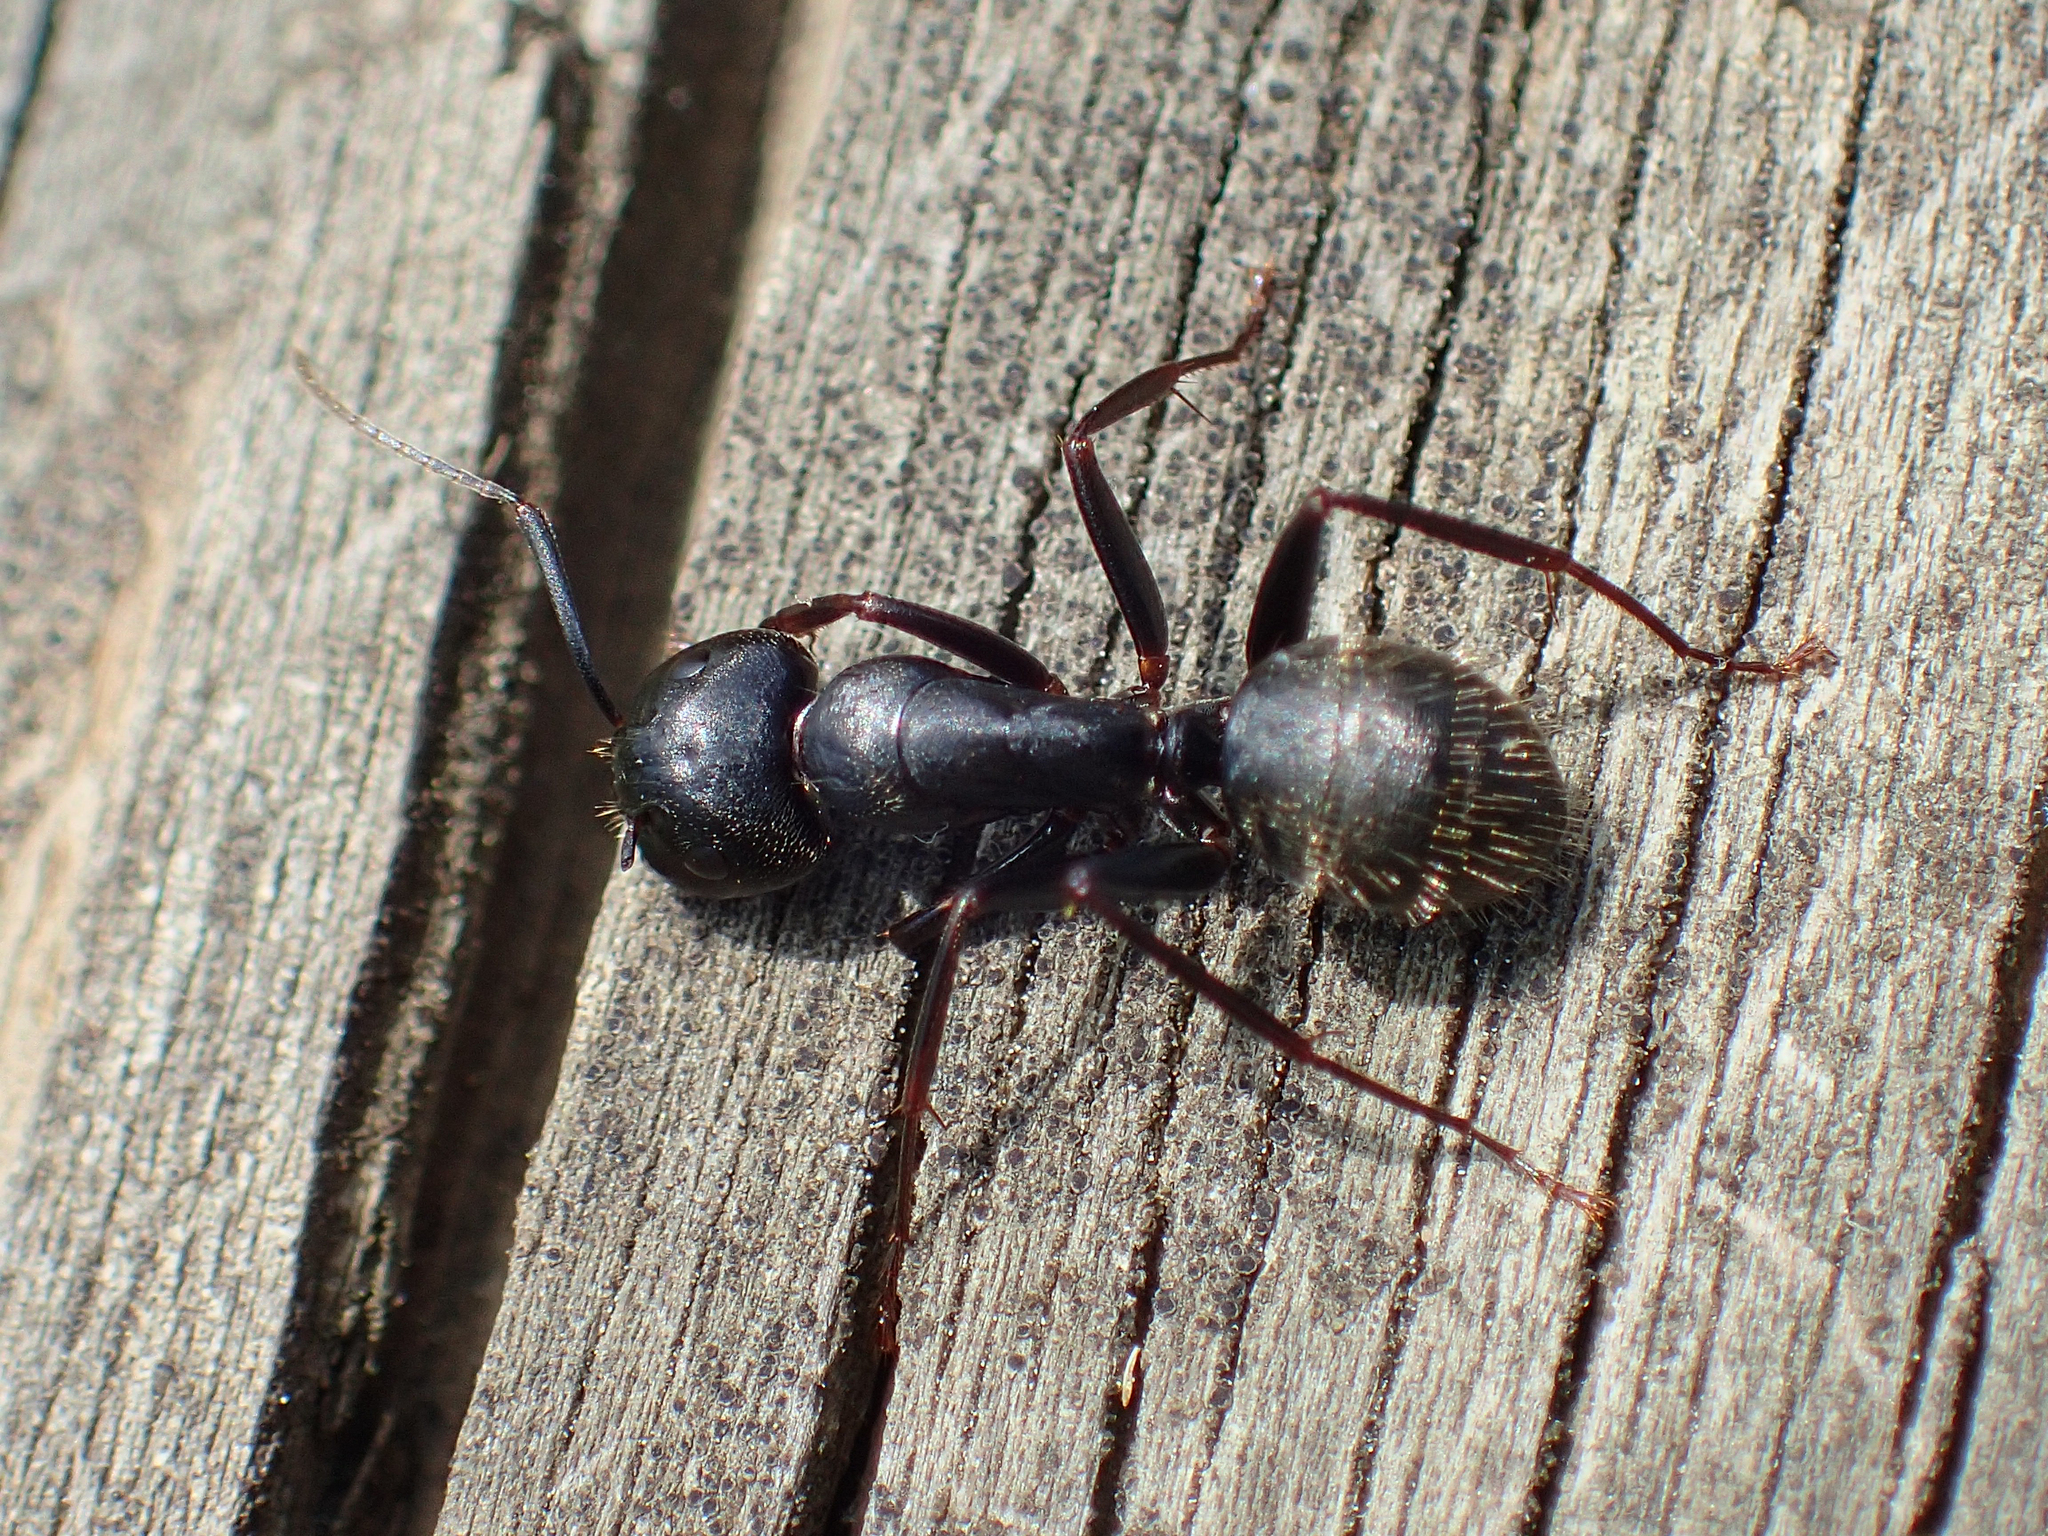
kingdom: Animalia
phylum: Arthropoda
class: Insecta
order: Hymenoptera
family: Formicidae
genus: Camponotus
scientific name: Camponotus pennsylvanicus
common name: Black carpenter ant
